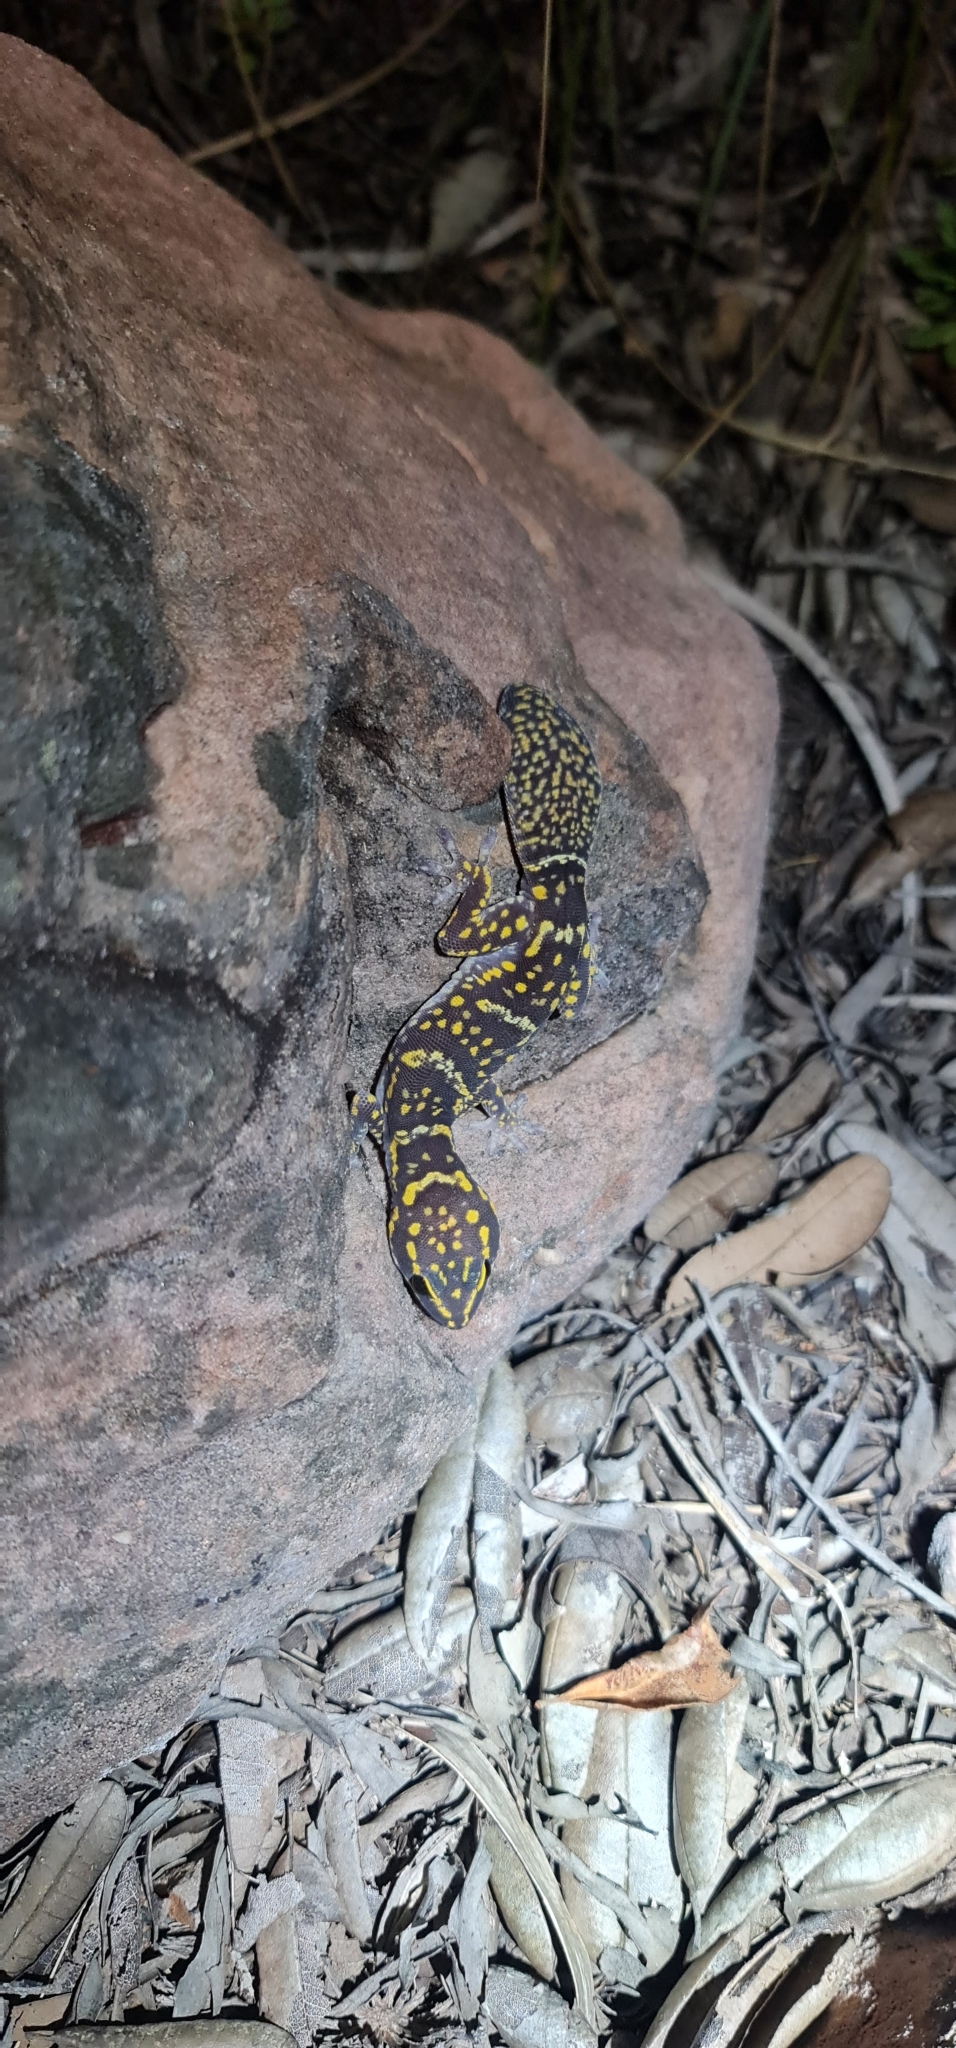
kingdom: Animalia
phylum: Chordata
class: Squamata
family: Diplodactylidae
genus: Oedura
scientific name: Oedura marmorata
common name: Marbled velvet gecko
